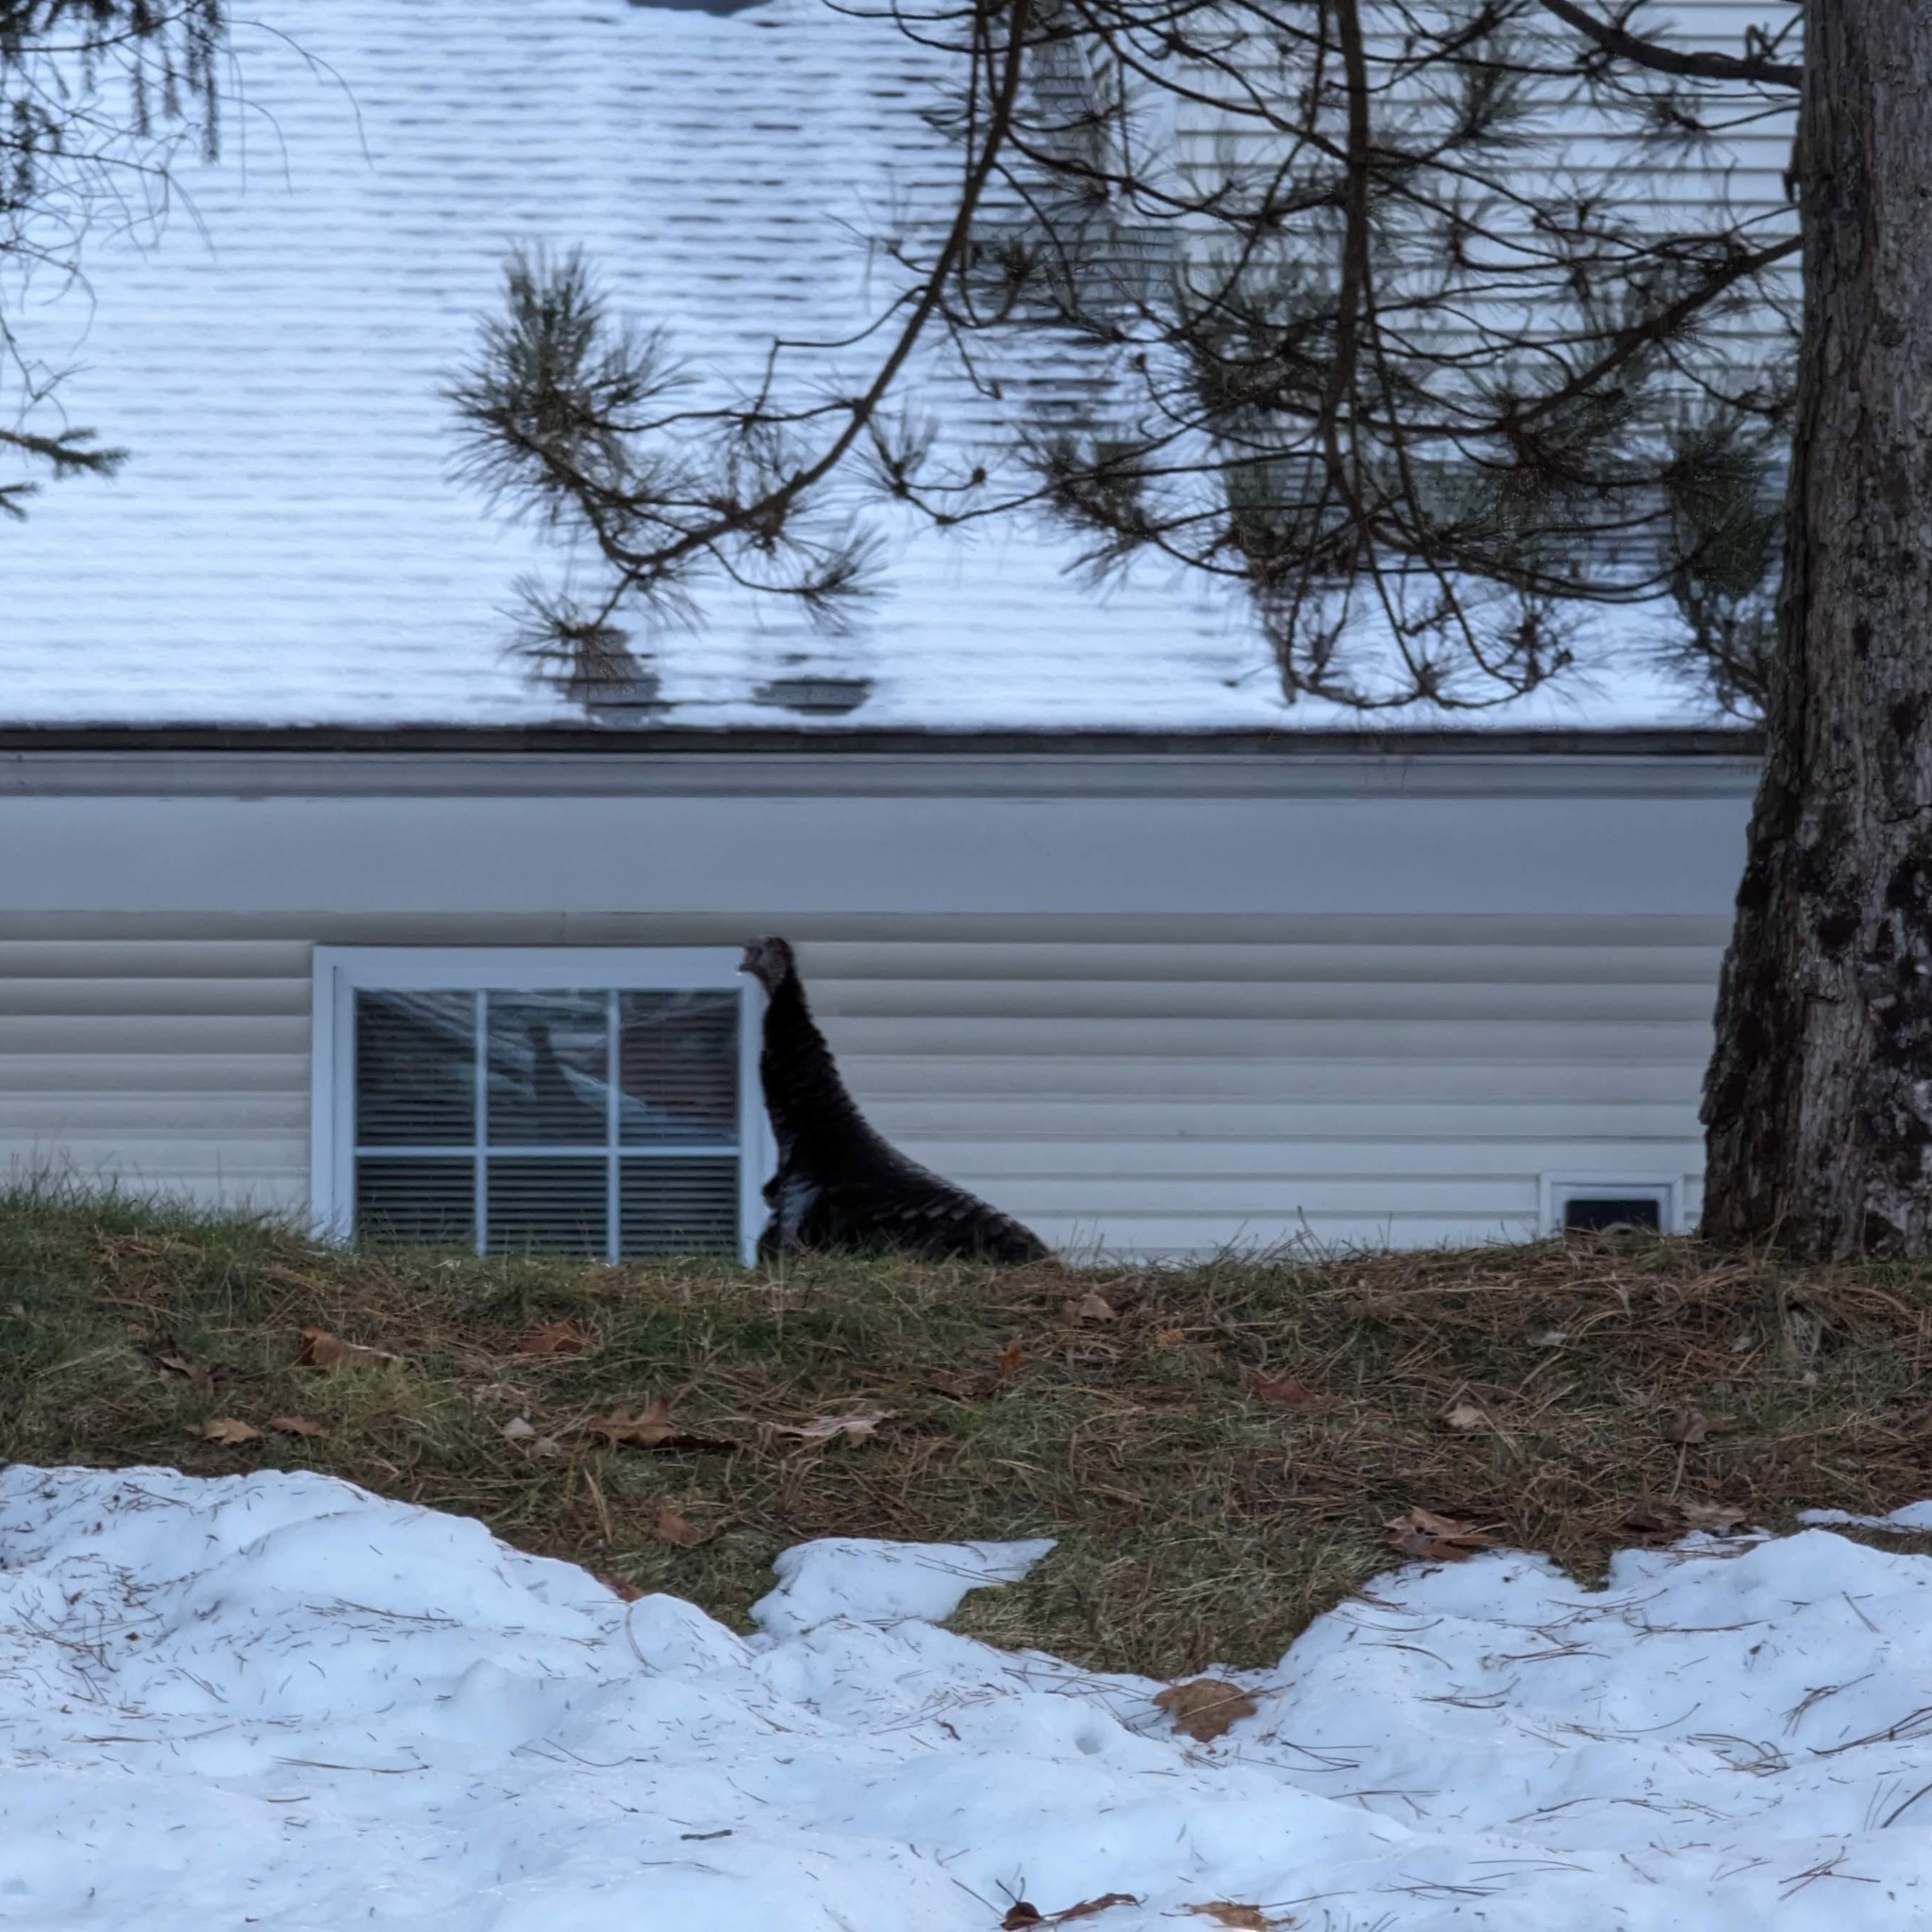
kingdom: Animalia
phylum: Chordata
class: Aves
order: Galliformes
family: Phasianidae
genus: Meleagris
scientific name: Meleagris gallopavo
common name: Wild turkey
